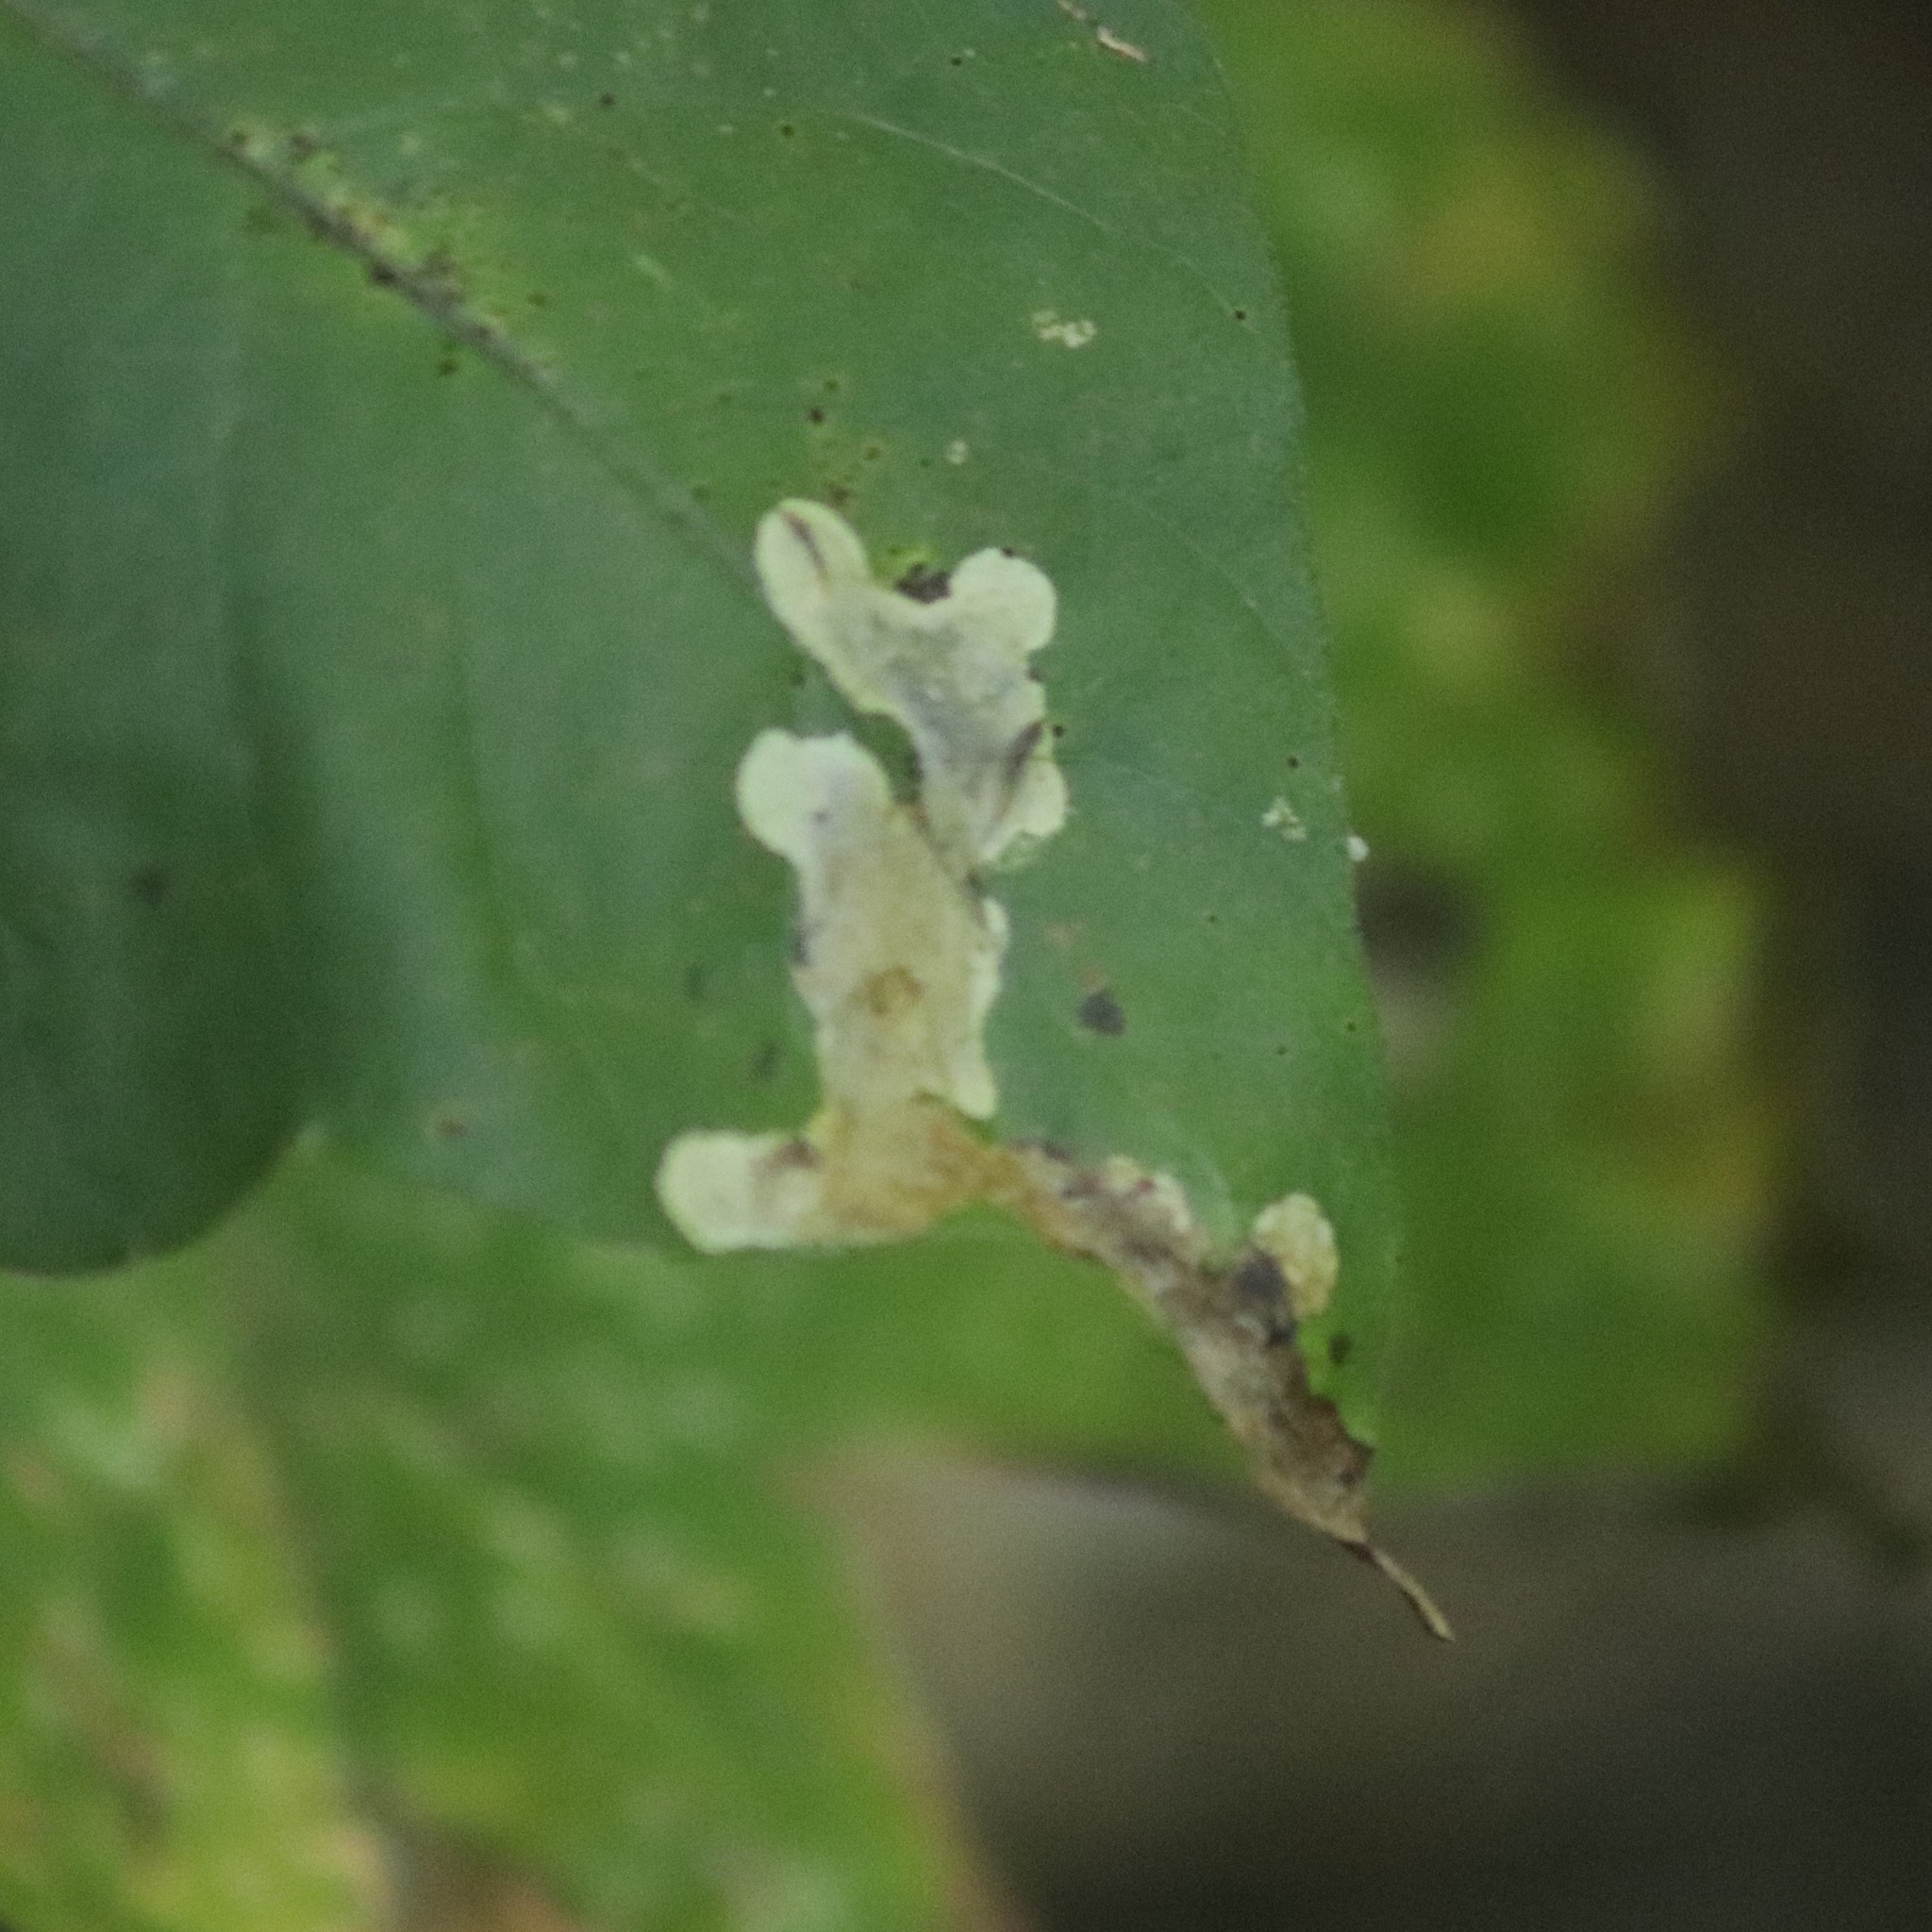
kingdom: Animalia
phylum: Arthropoda
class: Insecta
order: Lepidoptera
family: Gracillariidae
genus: Cameraria
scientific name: Cameraria guttifinitella
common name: Poison ivy leaf-miner moth
